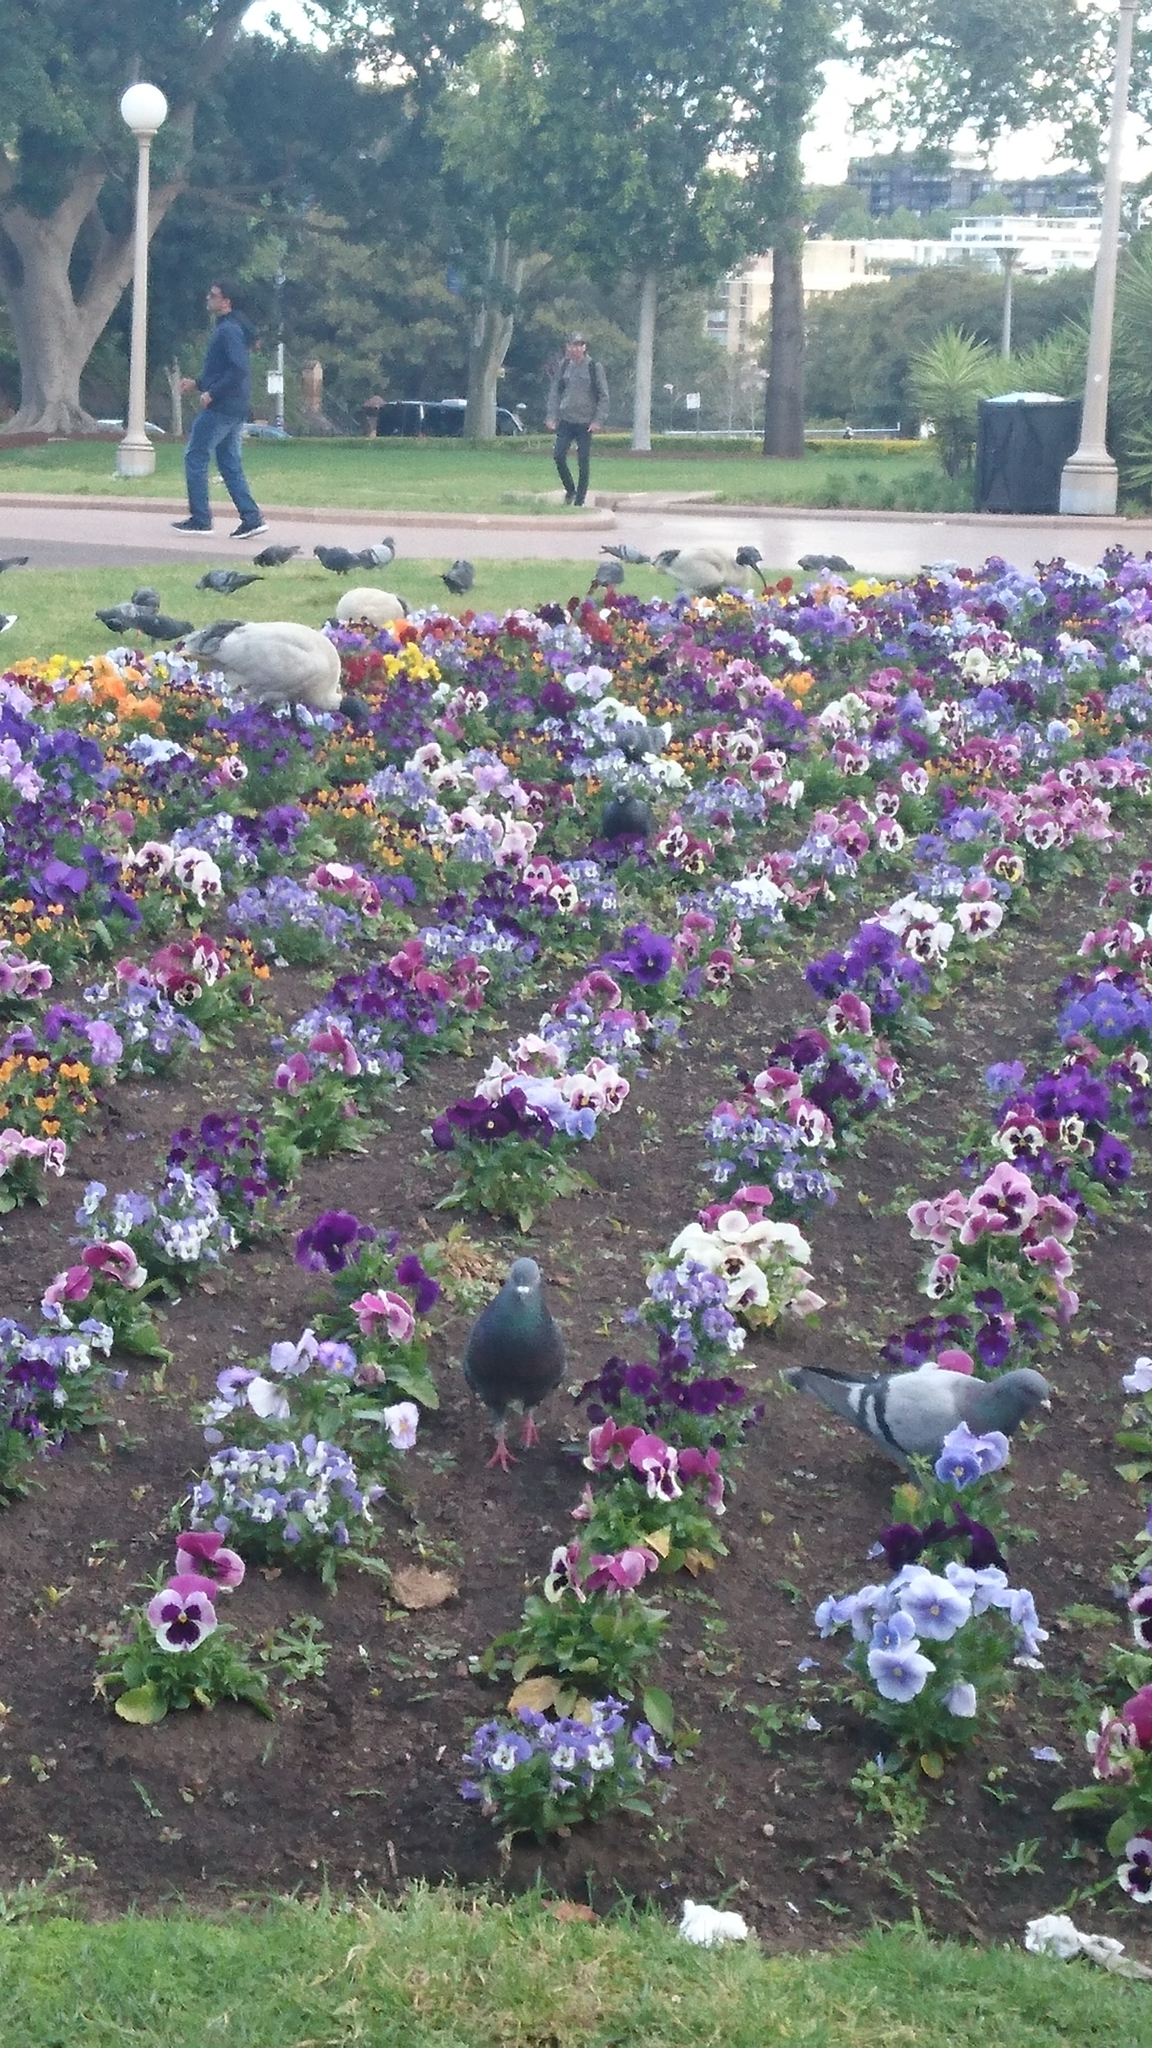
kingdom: Animalia
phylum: Chordata
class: Aves
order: Columbiformes
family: Columbidae
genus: Columba
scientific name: Columba livia
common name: Rock pigeon
